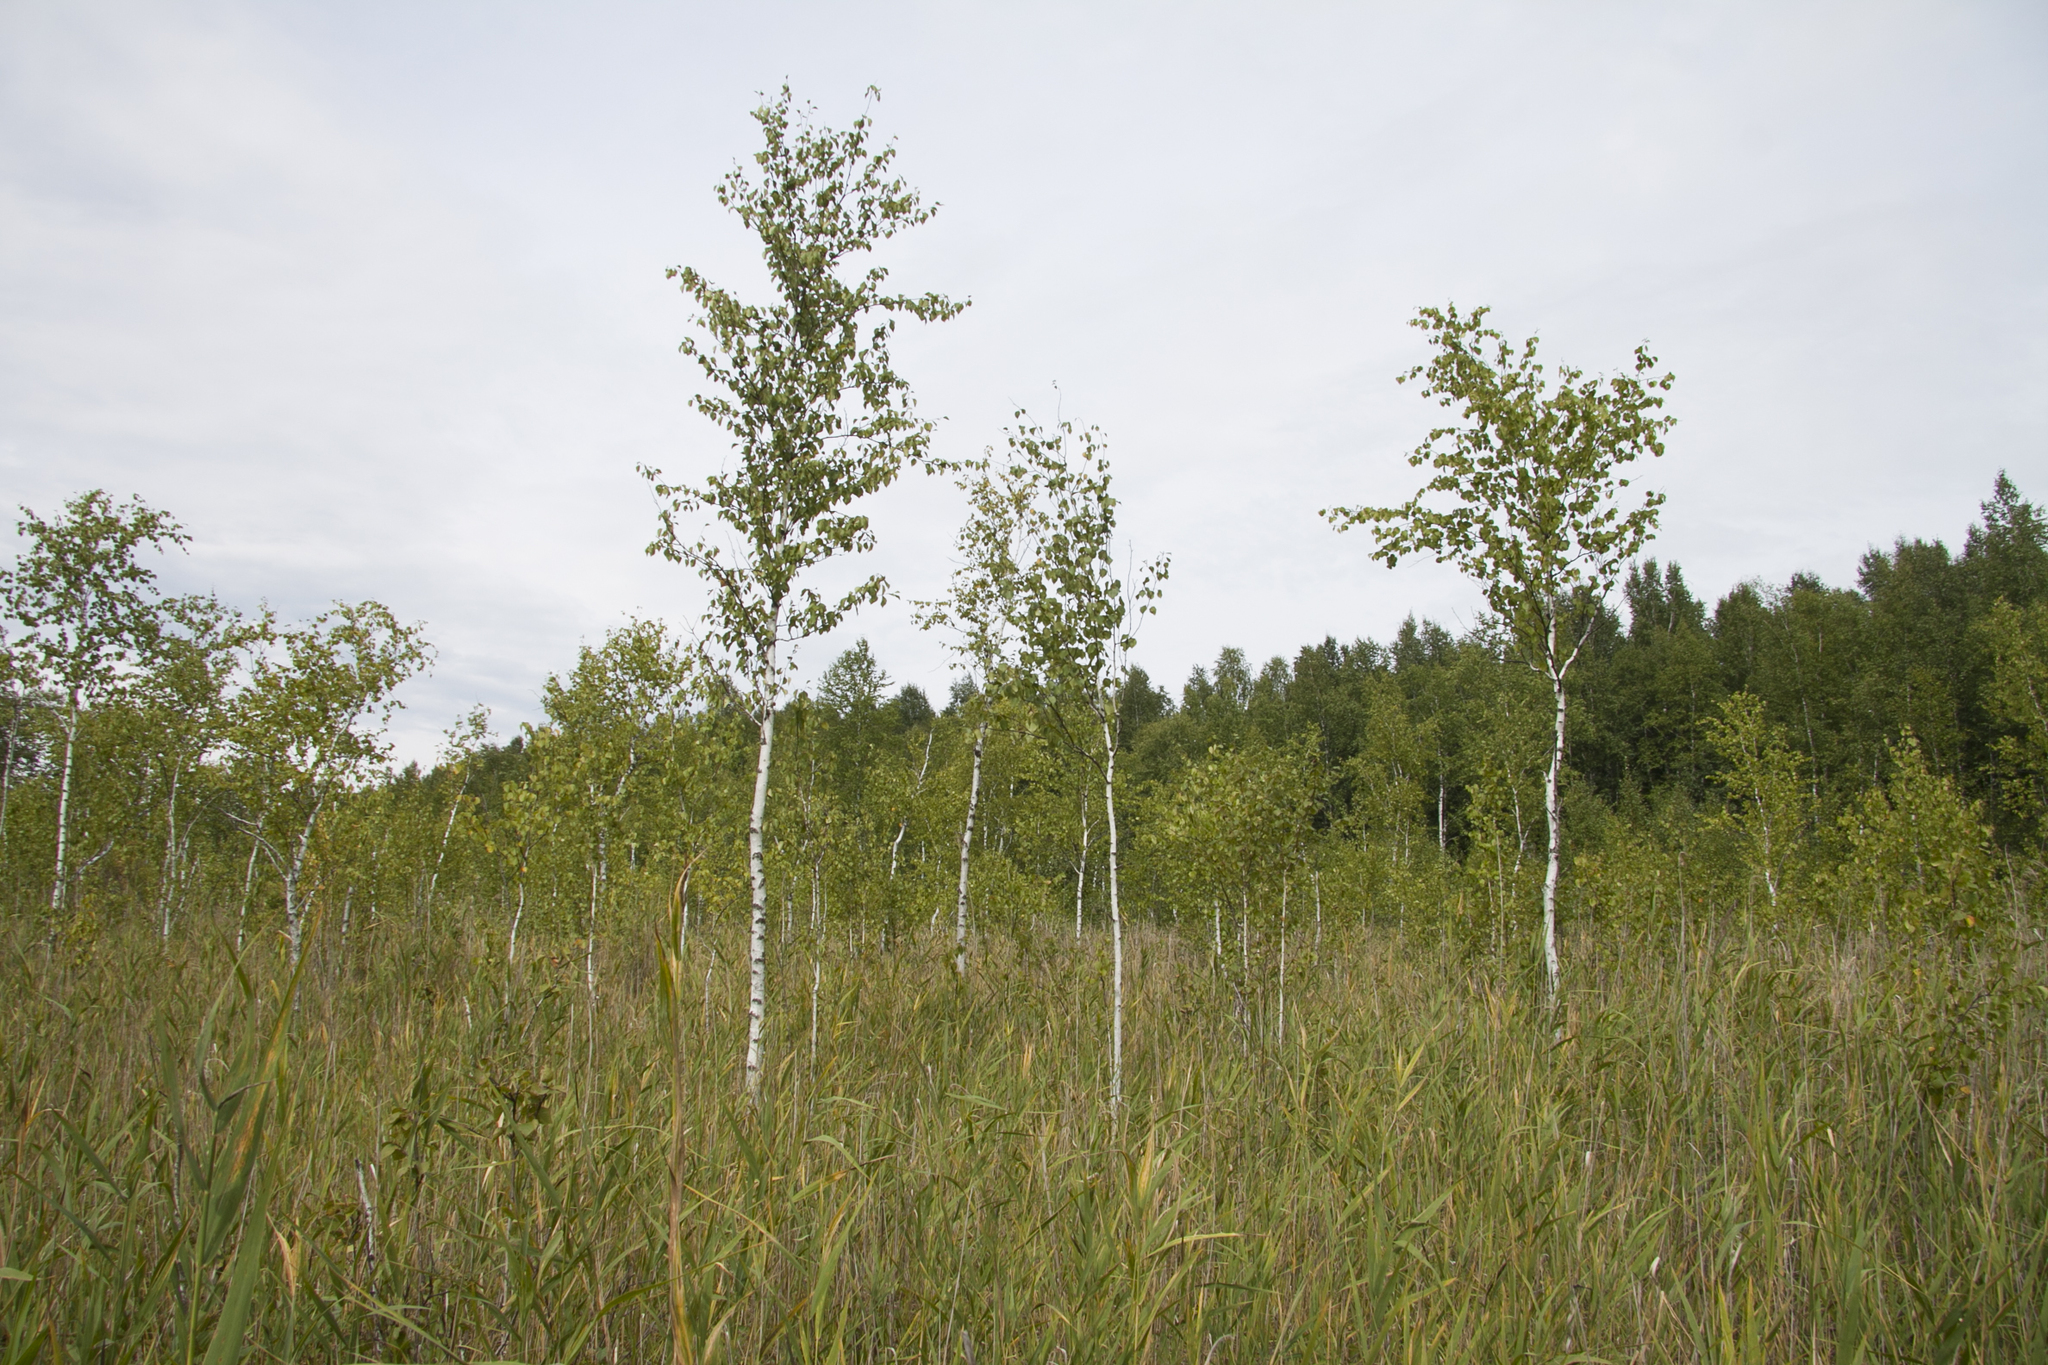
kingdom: Plantae
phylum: Tracheophyta
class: Magnoliopsida
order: Fagales
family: Betulaceae
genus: Betula
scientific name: Betula pendula
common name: Silver birch
